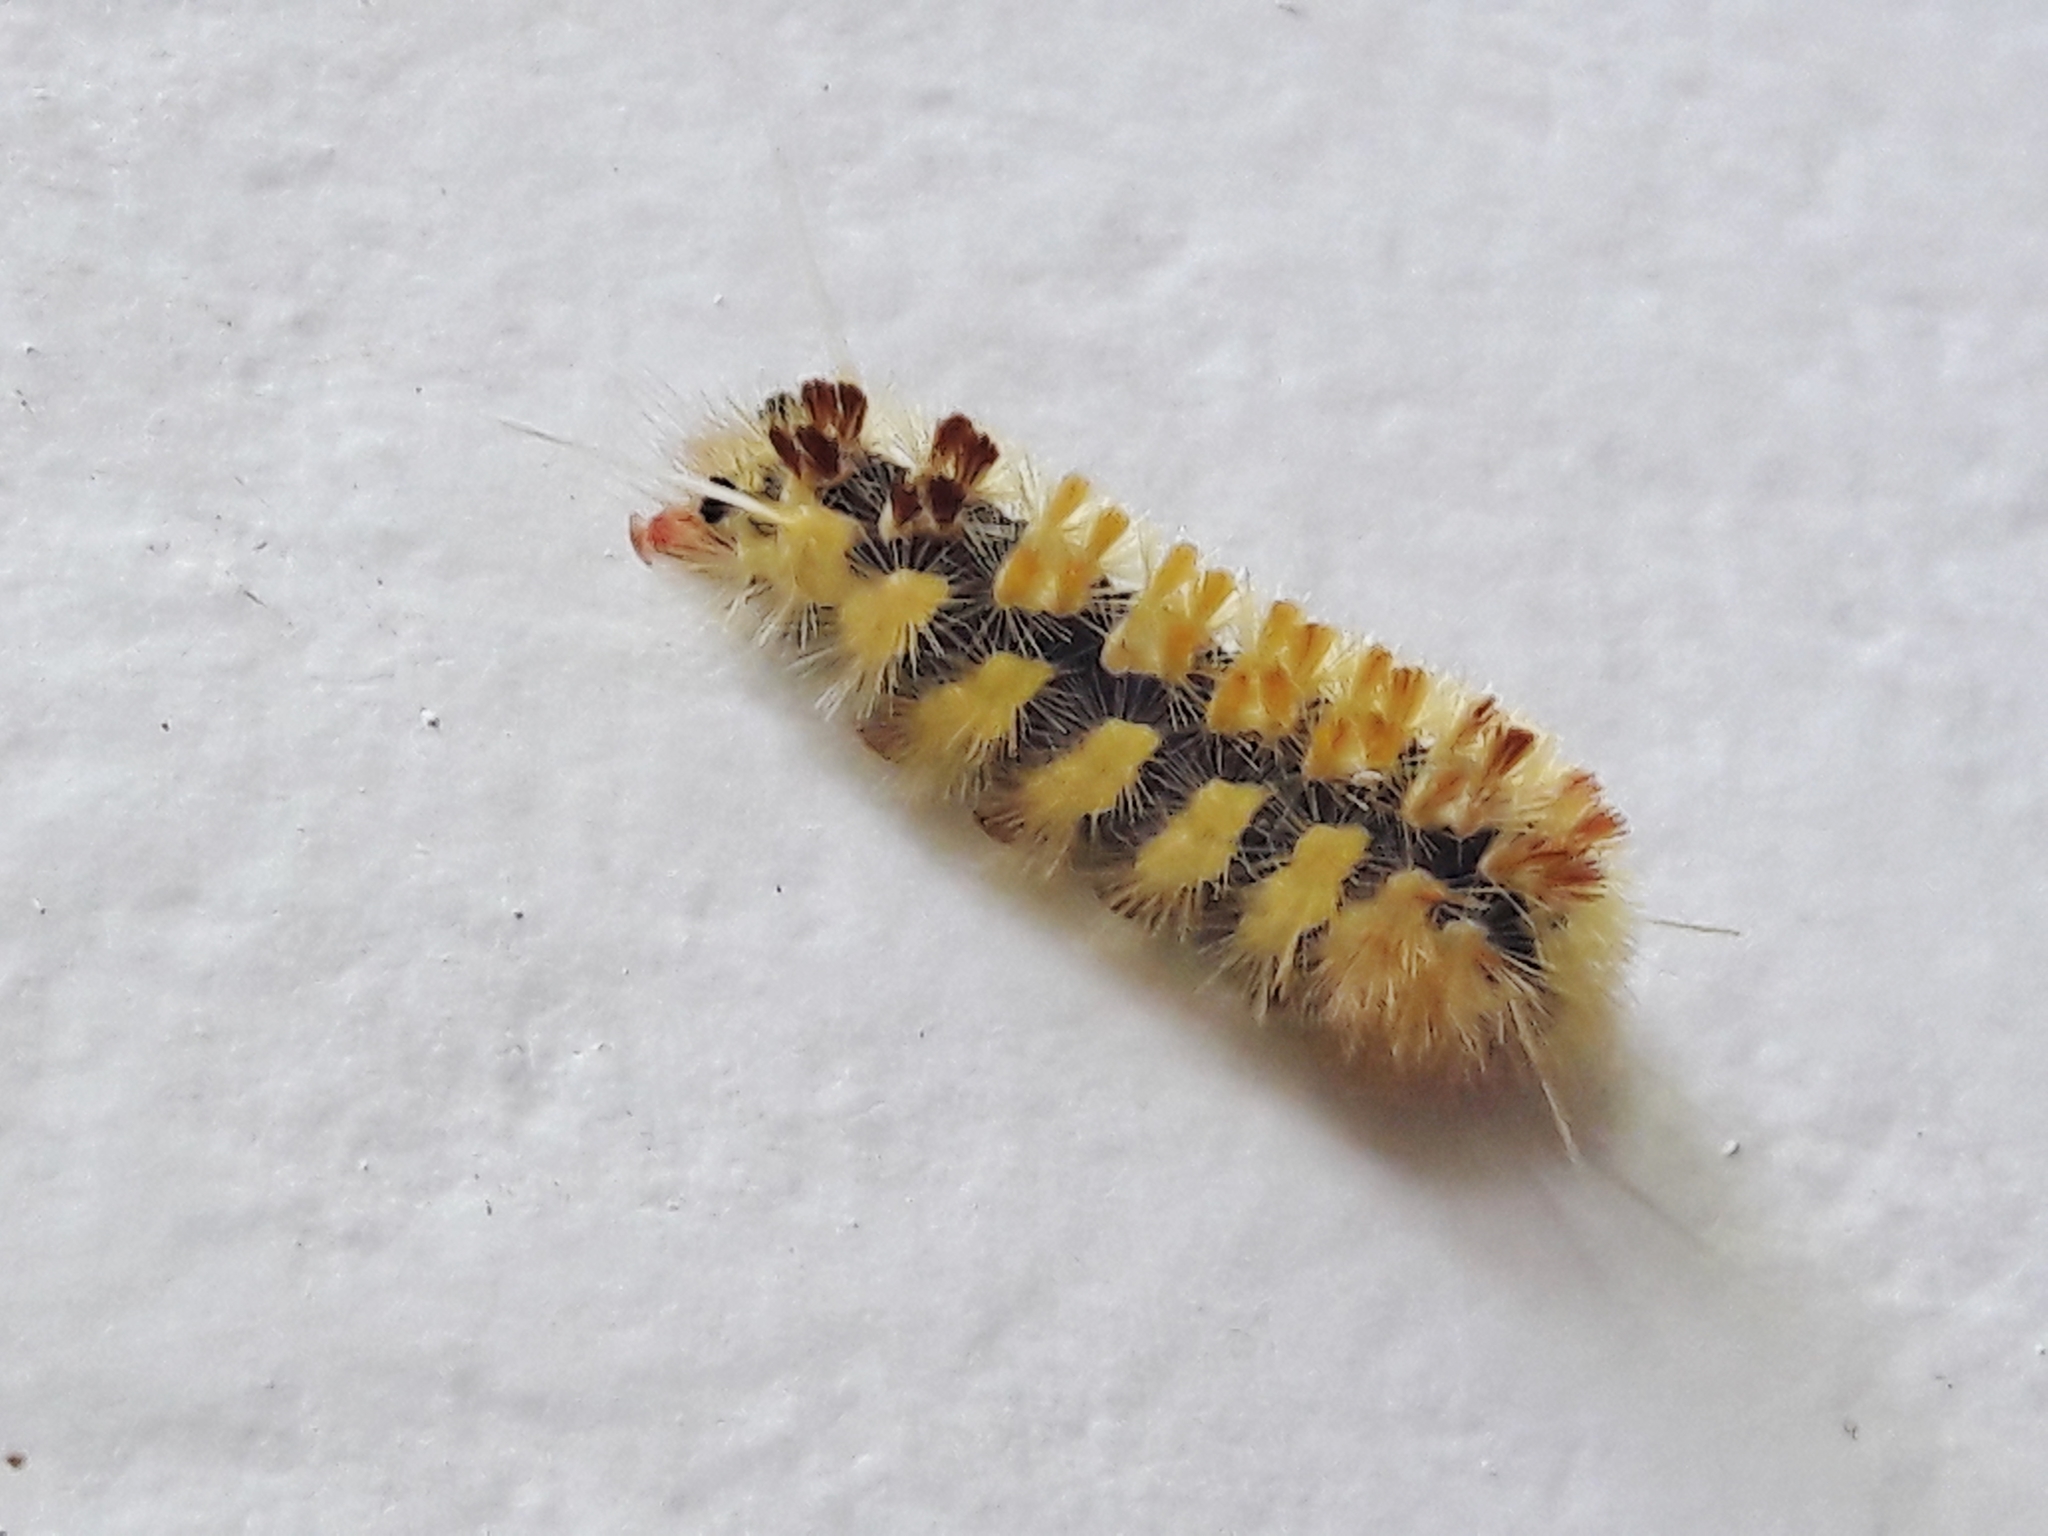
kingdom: Animalia
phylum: Arthropoda
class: Insecta
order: Lepidoptera
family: Erebidae
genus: Lophocampa
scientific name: Lophocampa annulosa
